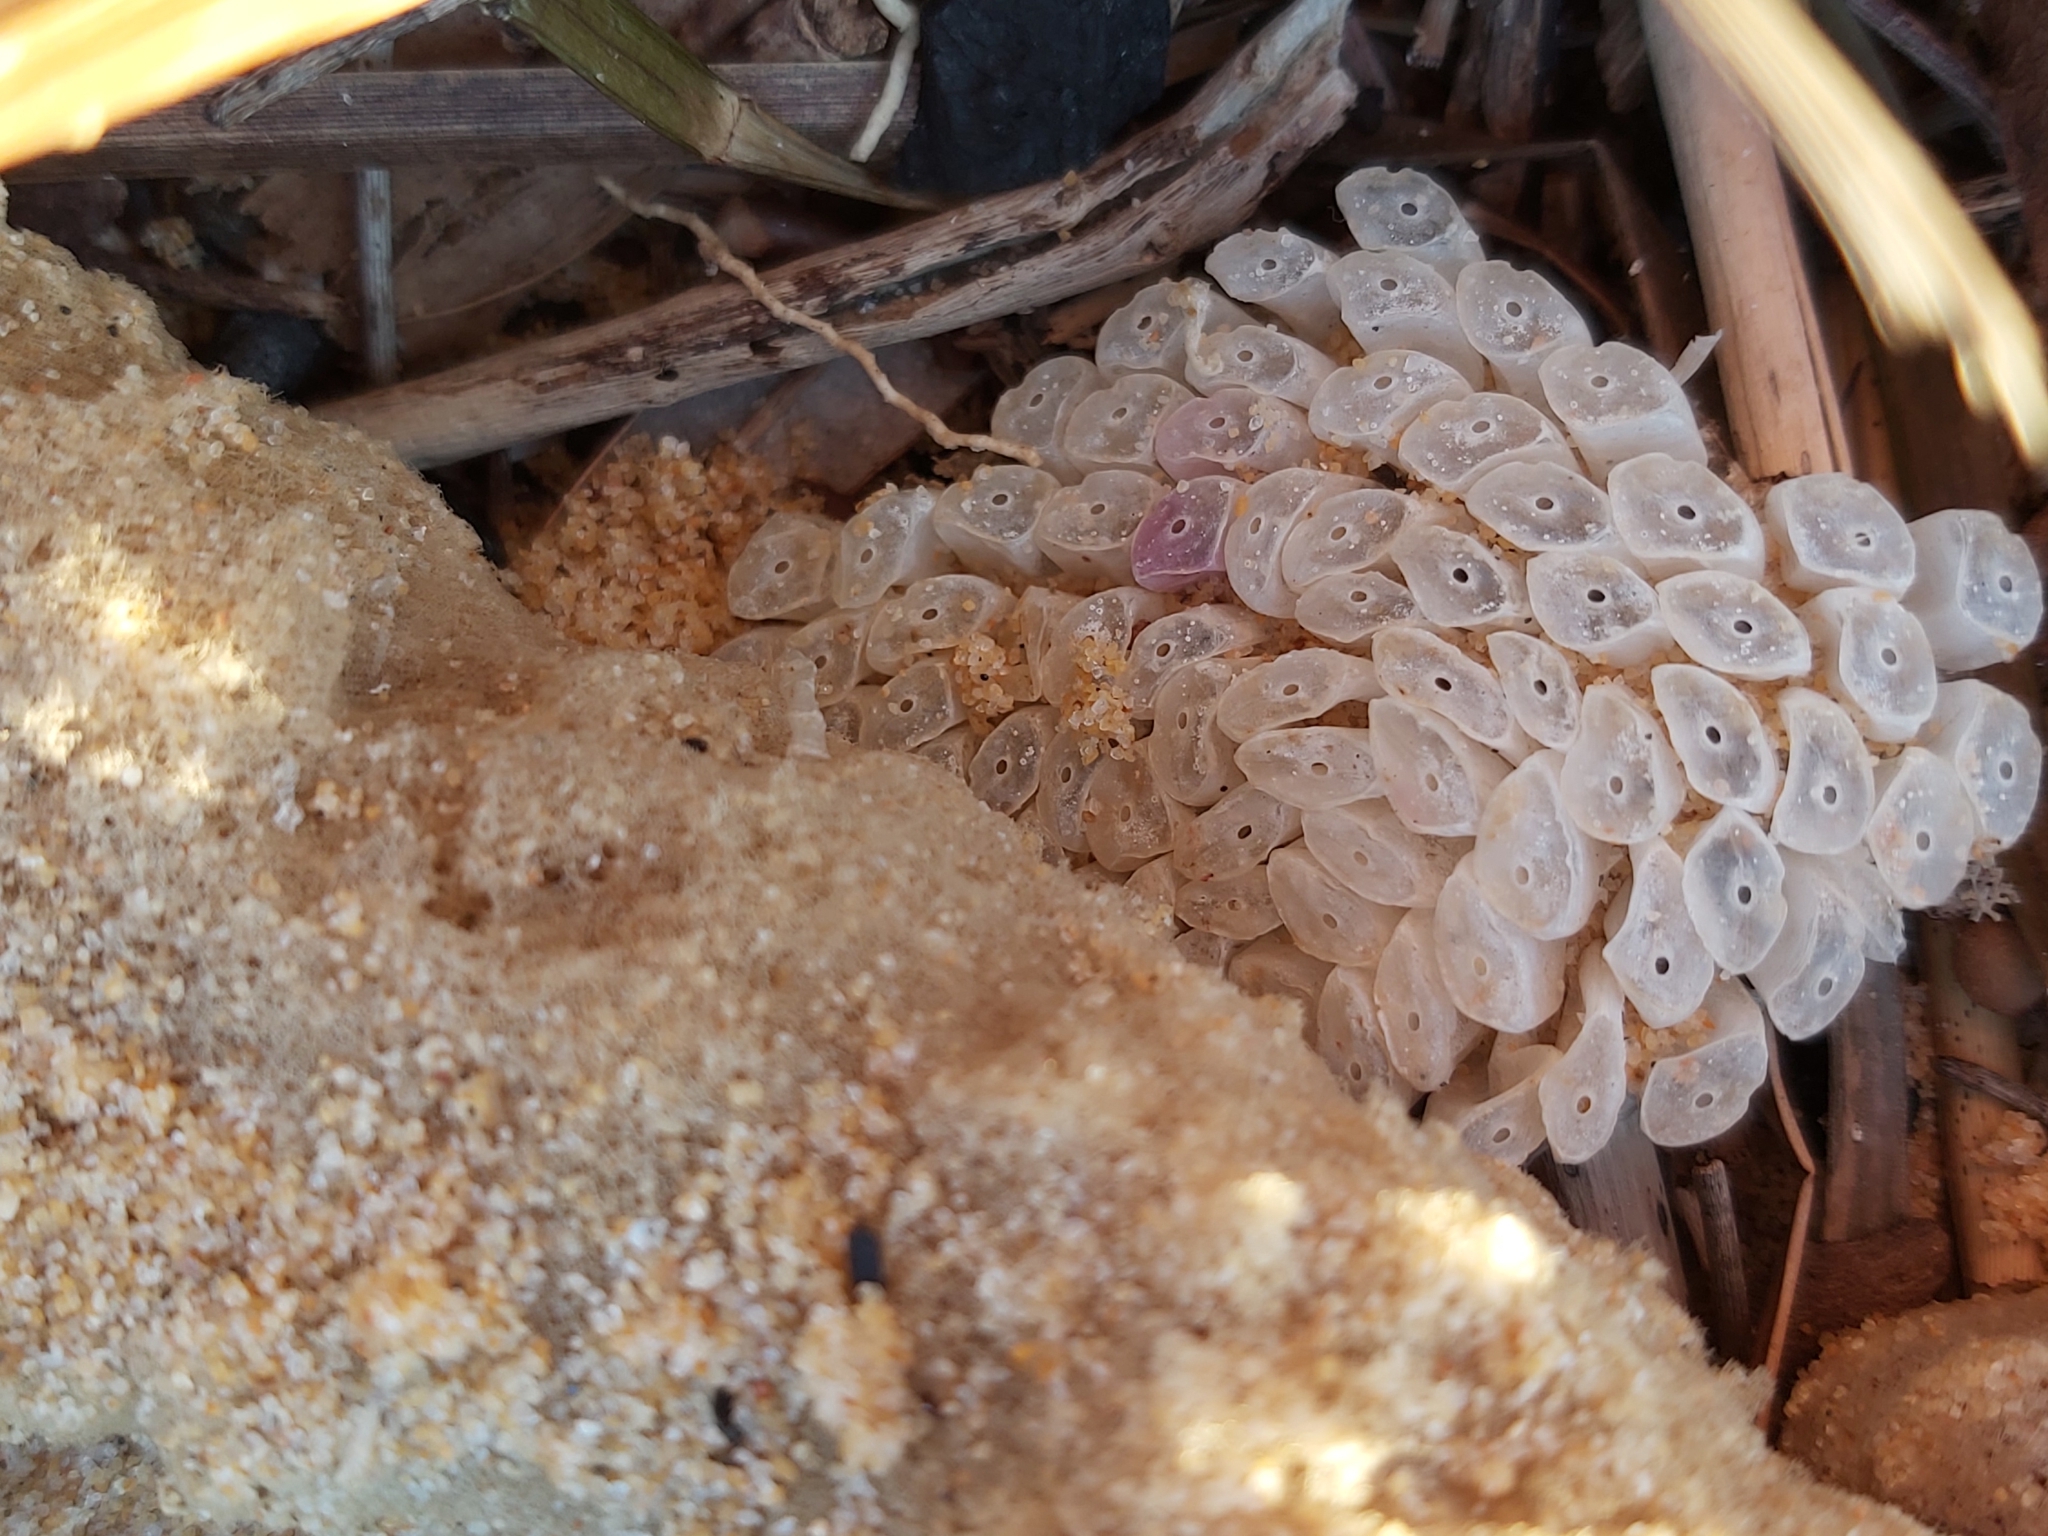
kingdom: Animalia
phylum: Mollusca
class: Gastropoda
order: Neogastropoda
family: Muricidae
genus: Dicathais
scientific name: Dicathais orbita
